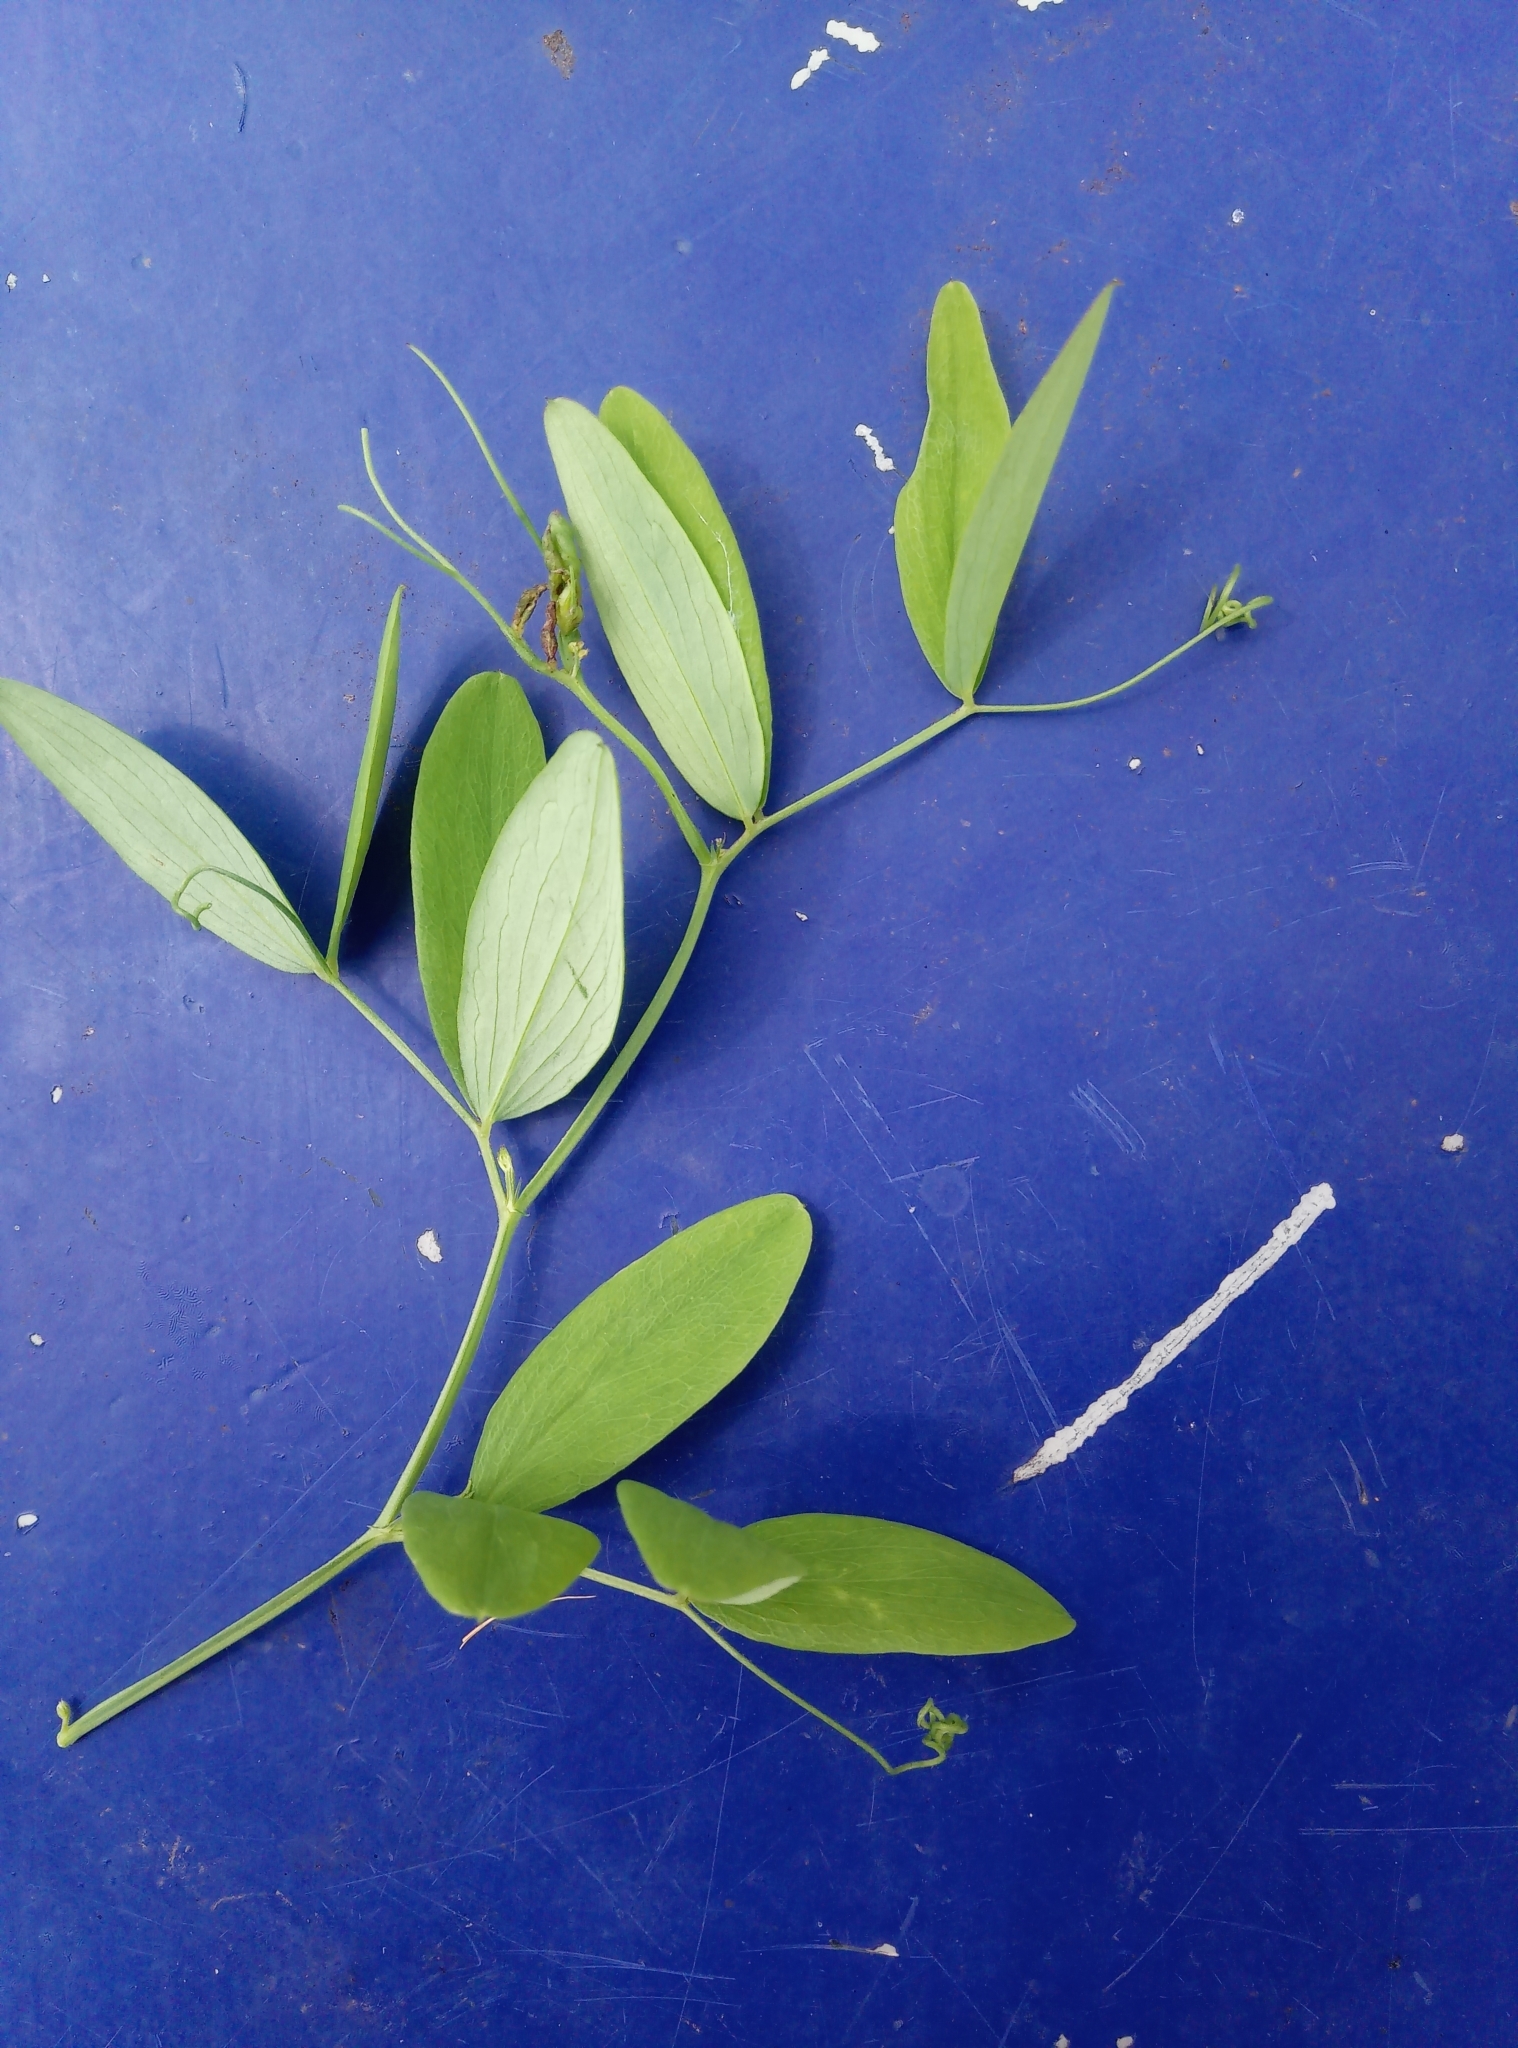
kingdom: Plantae
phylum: Tracheophyta
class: Magnoliopsida
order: Fabales
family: Fabaceae
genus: Lathyrus
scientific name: Lathyrus palustris
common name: Marsh pea
